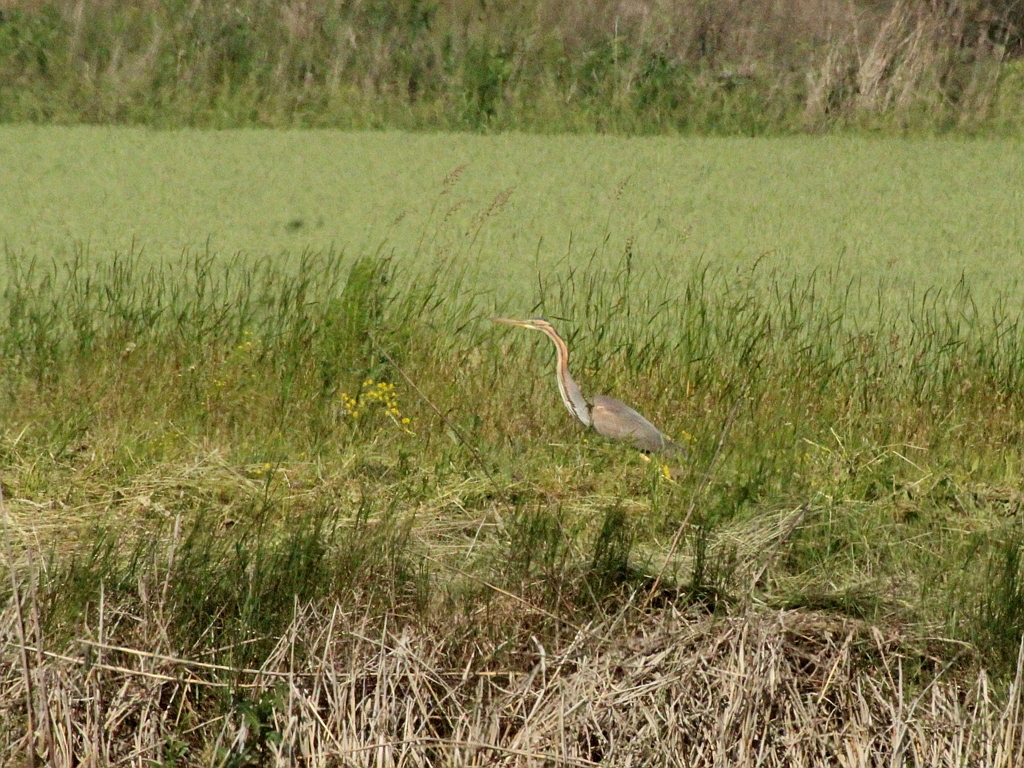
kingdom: Animalia
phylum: Chordata
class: Aves
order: Pelecaniformes
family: Ardeidae
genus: Ardea
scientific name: Ardea purpurea
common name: Purple heron
